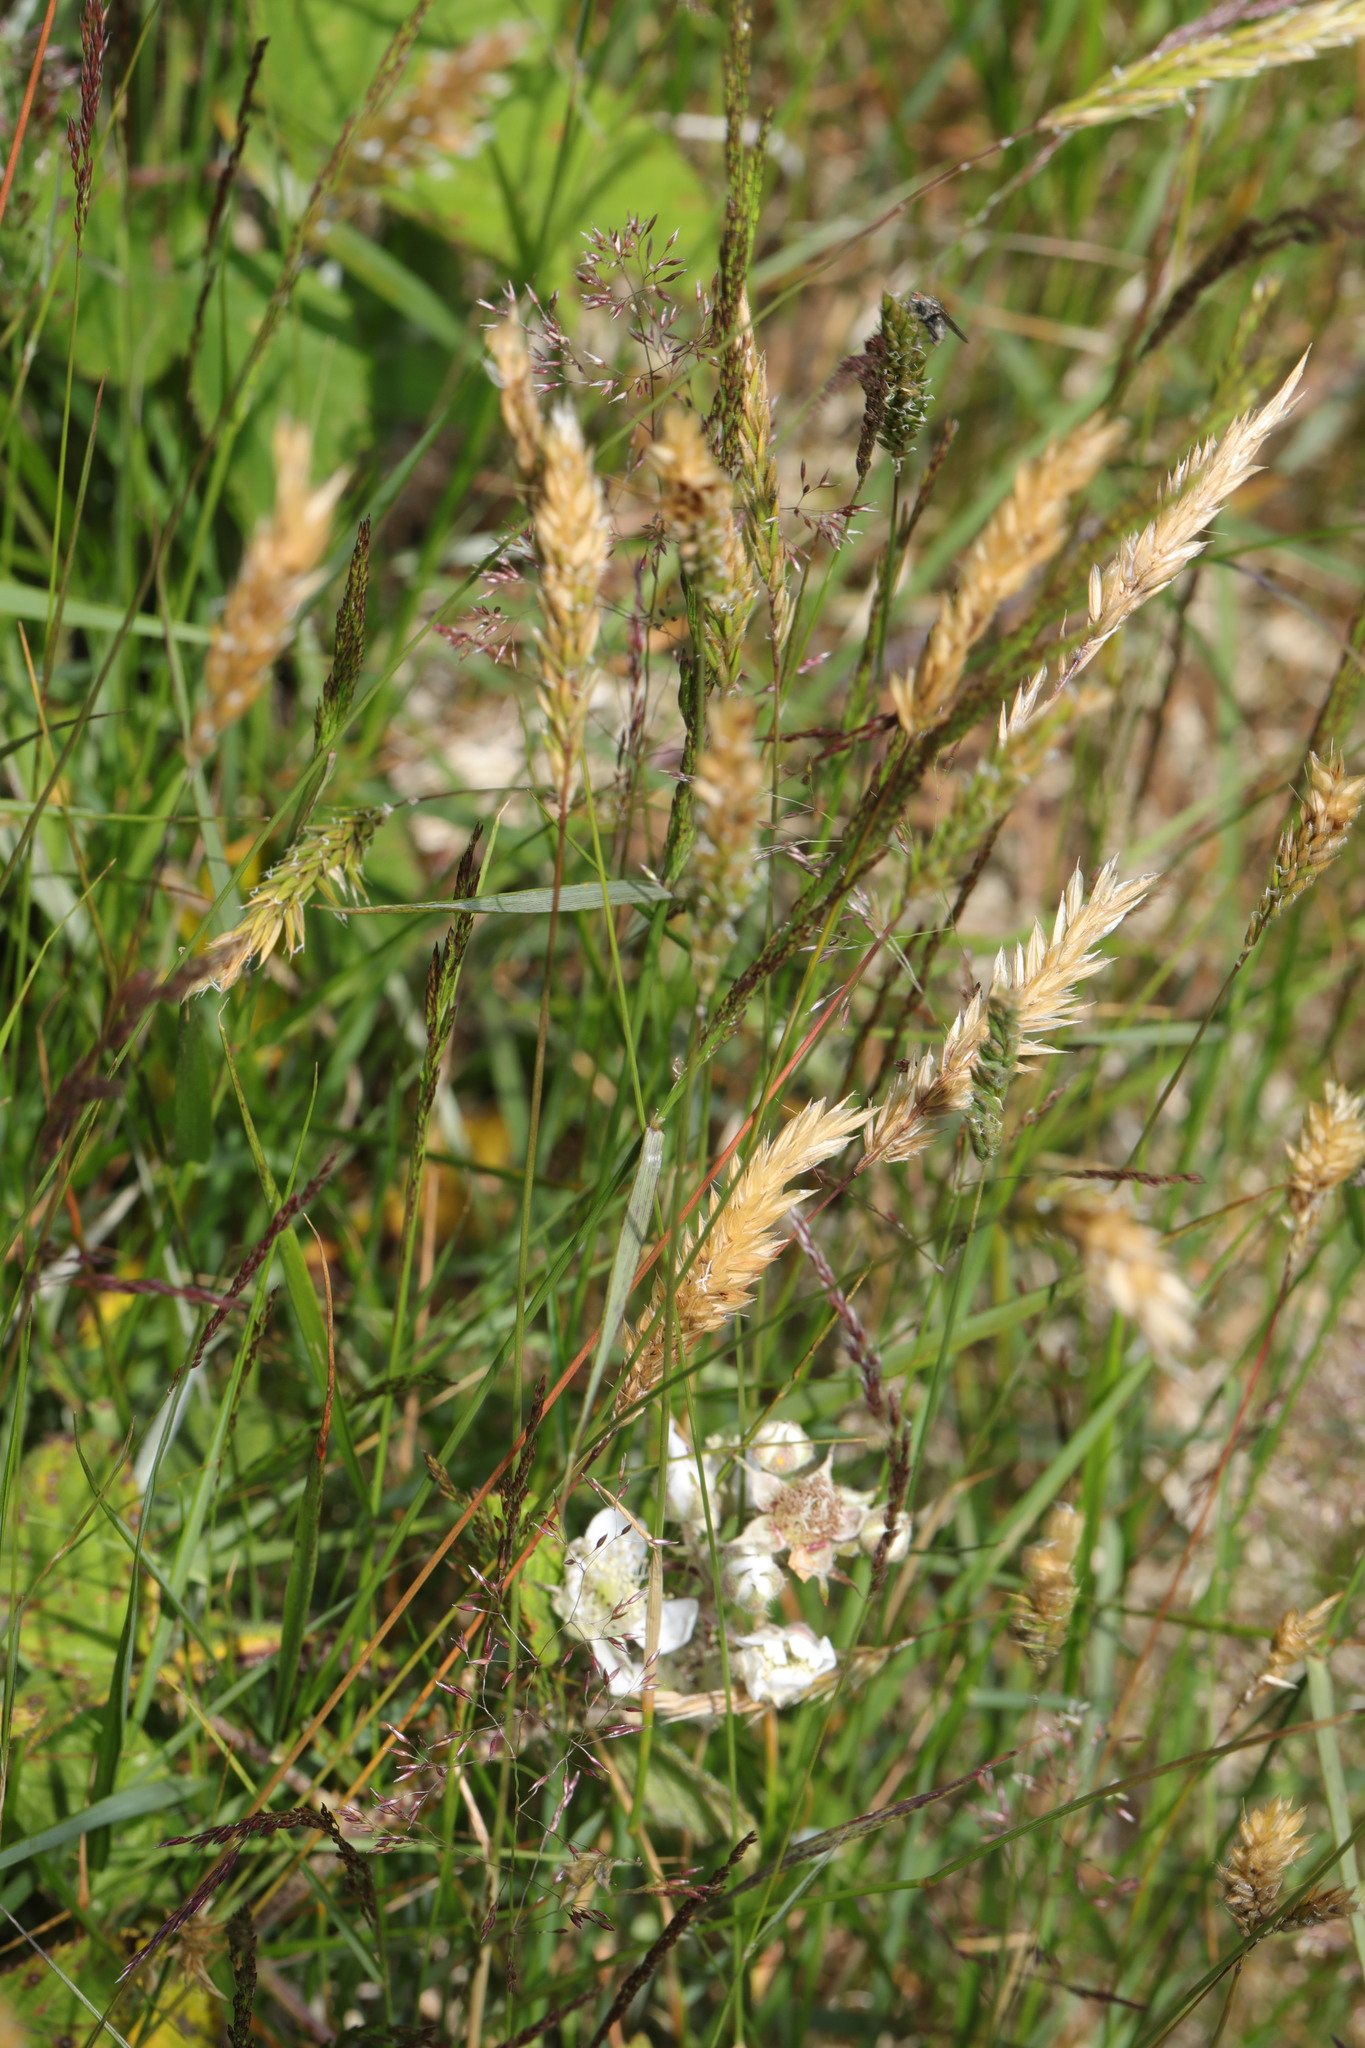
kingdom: Plantae
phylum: Tracheophyta
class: Liliopsida
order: Poales
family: Poaceae
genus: Anthoxanthum
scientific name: Anthoxanthum odoratum
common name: Sweet vernalgrass
